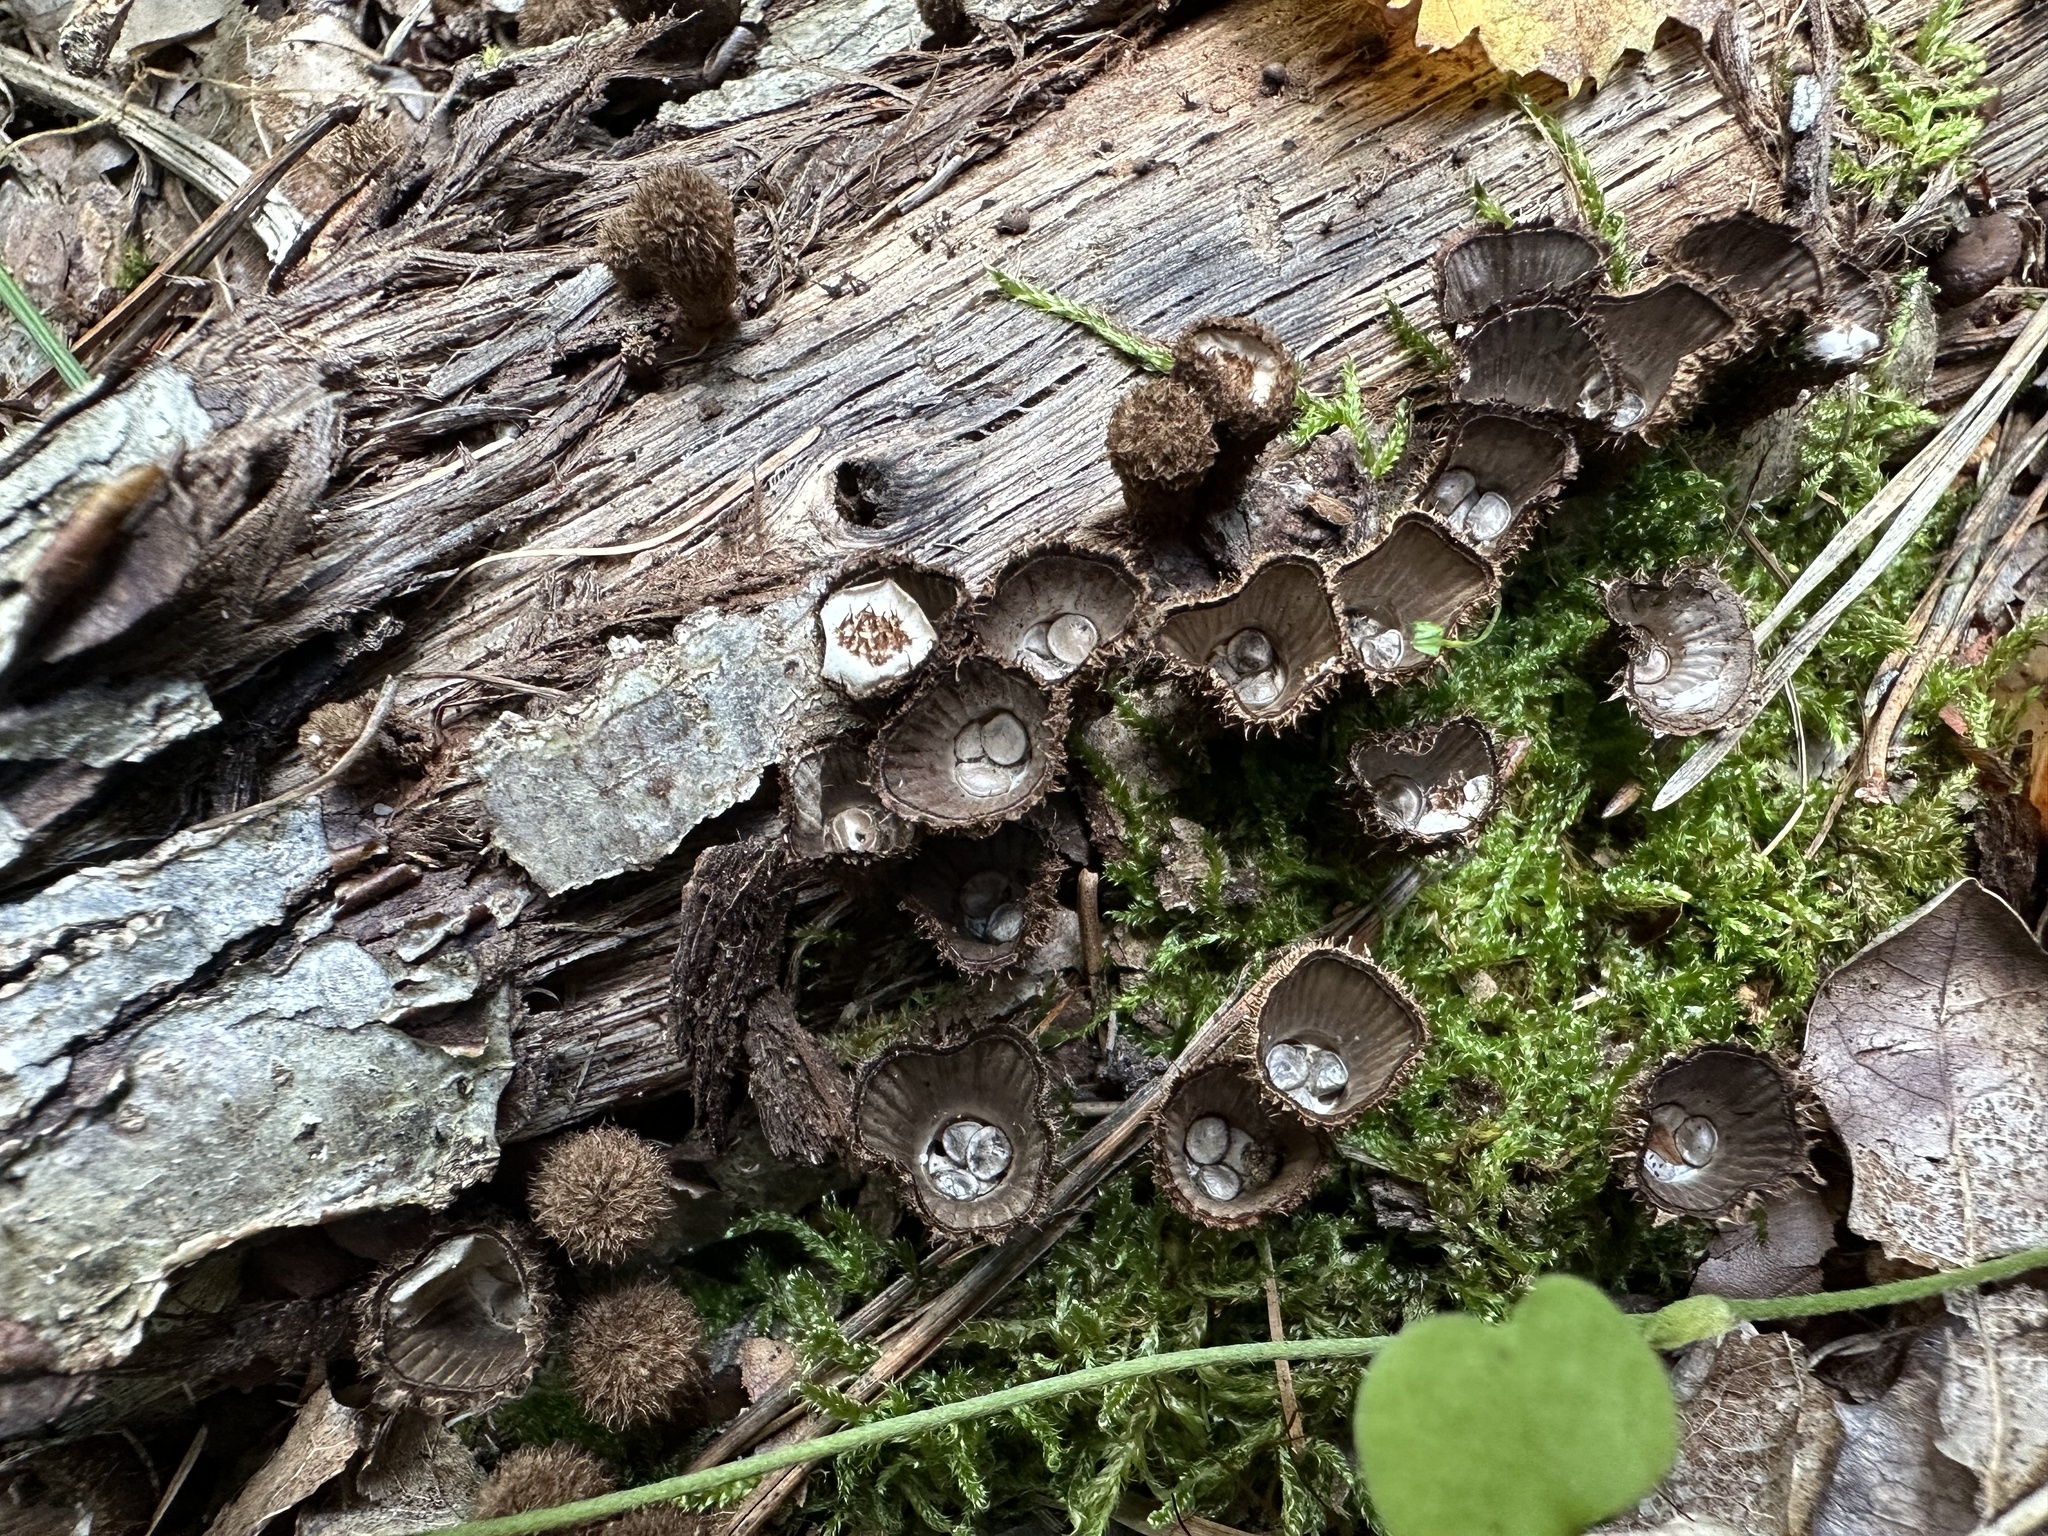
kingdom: Fungi
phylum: Basidiomycota
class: Agaricomycetes
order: Agaricales
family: Agaricaceae
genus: Cyathus
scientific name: Cyathus striatus
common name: Fluted bird's nest
